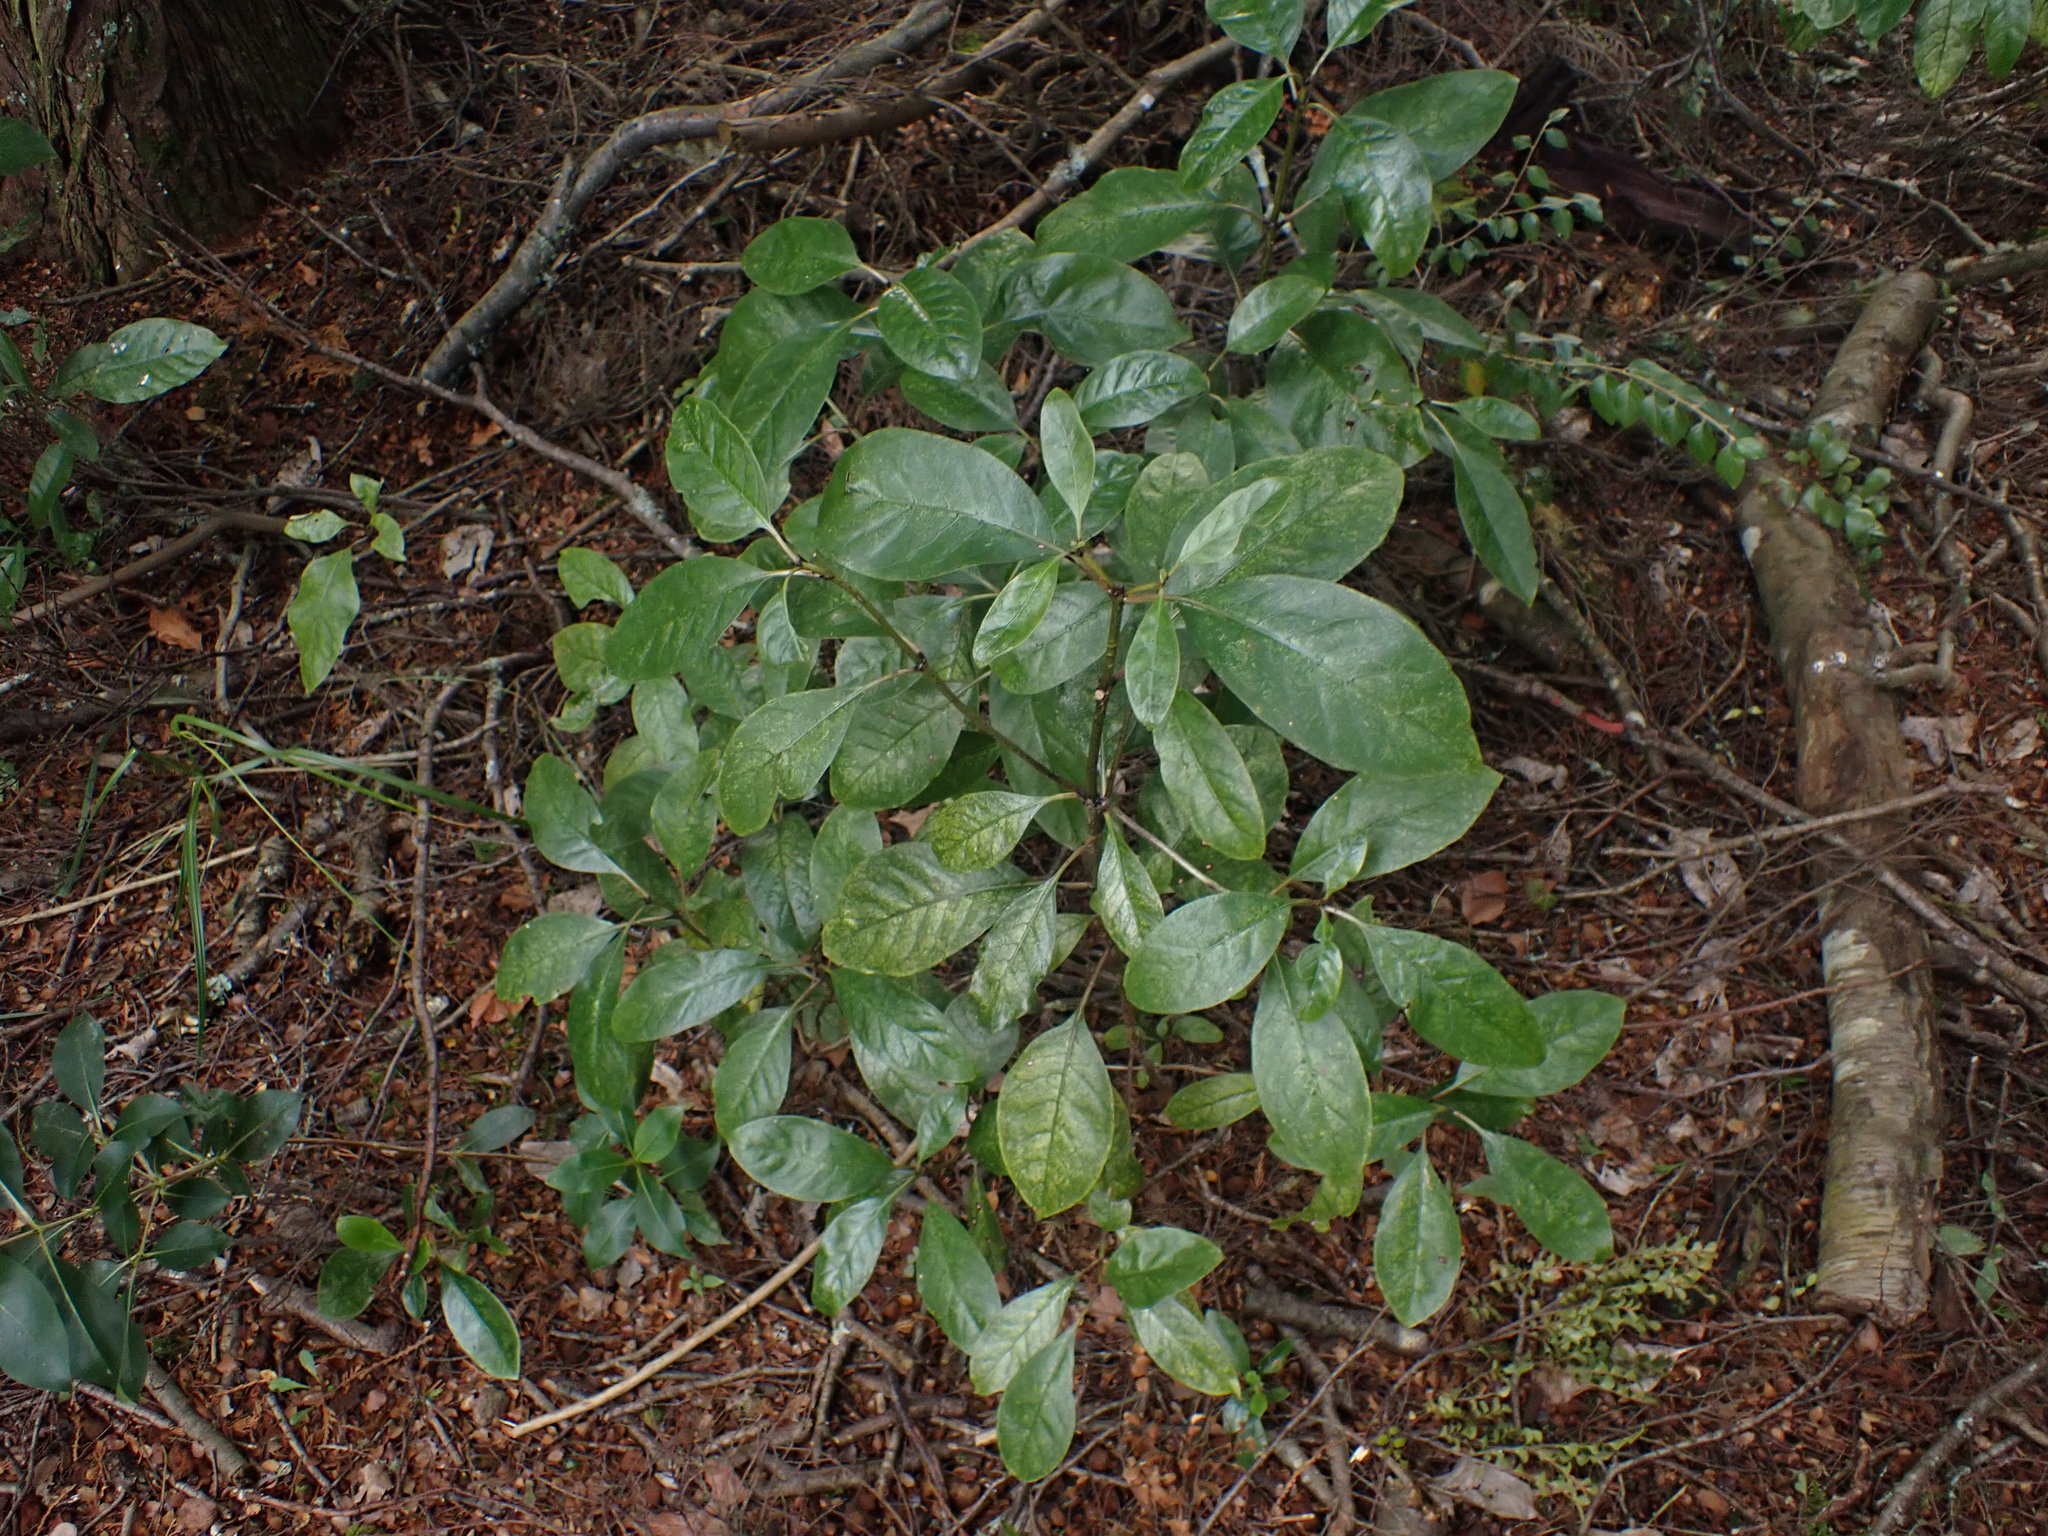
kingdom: Plantae
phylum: Tracheophyta
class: Magnoliopsida
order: Gentianales
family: Rubiaceae
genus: Coprosma
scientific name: Coprosma autumnalis
